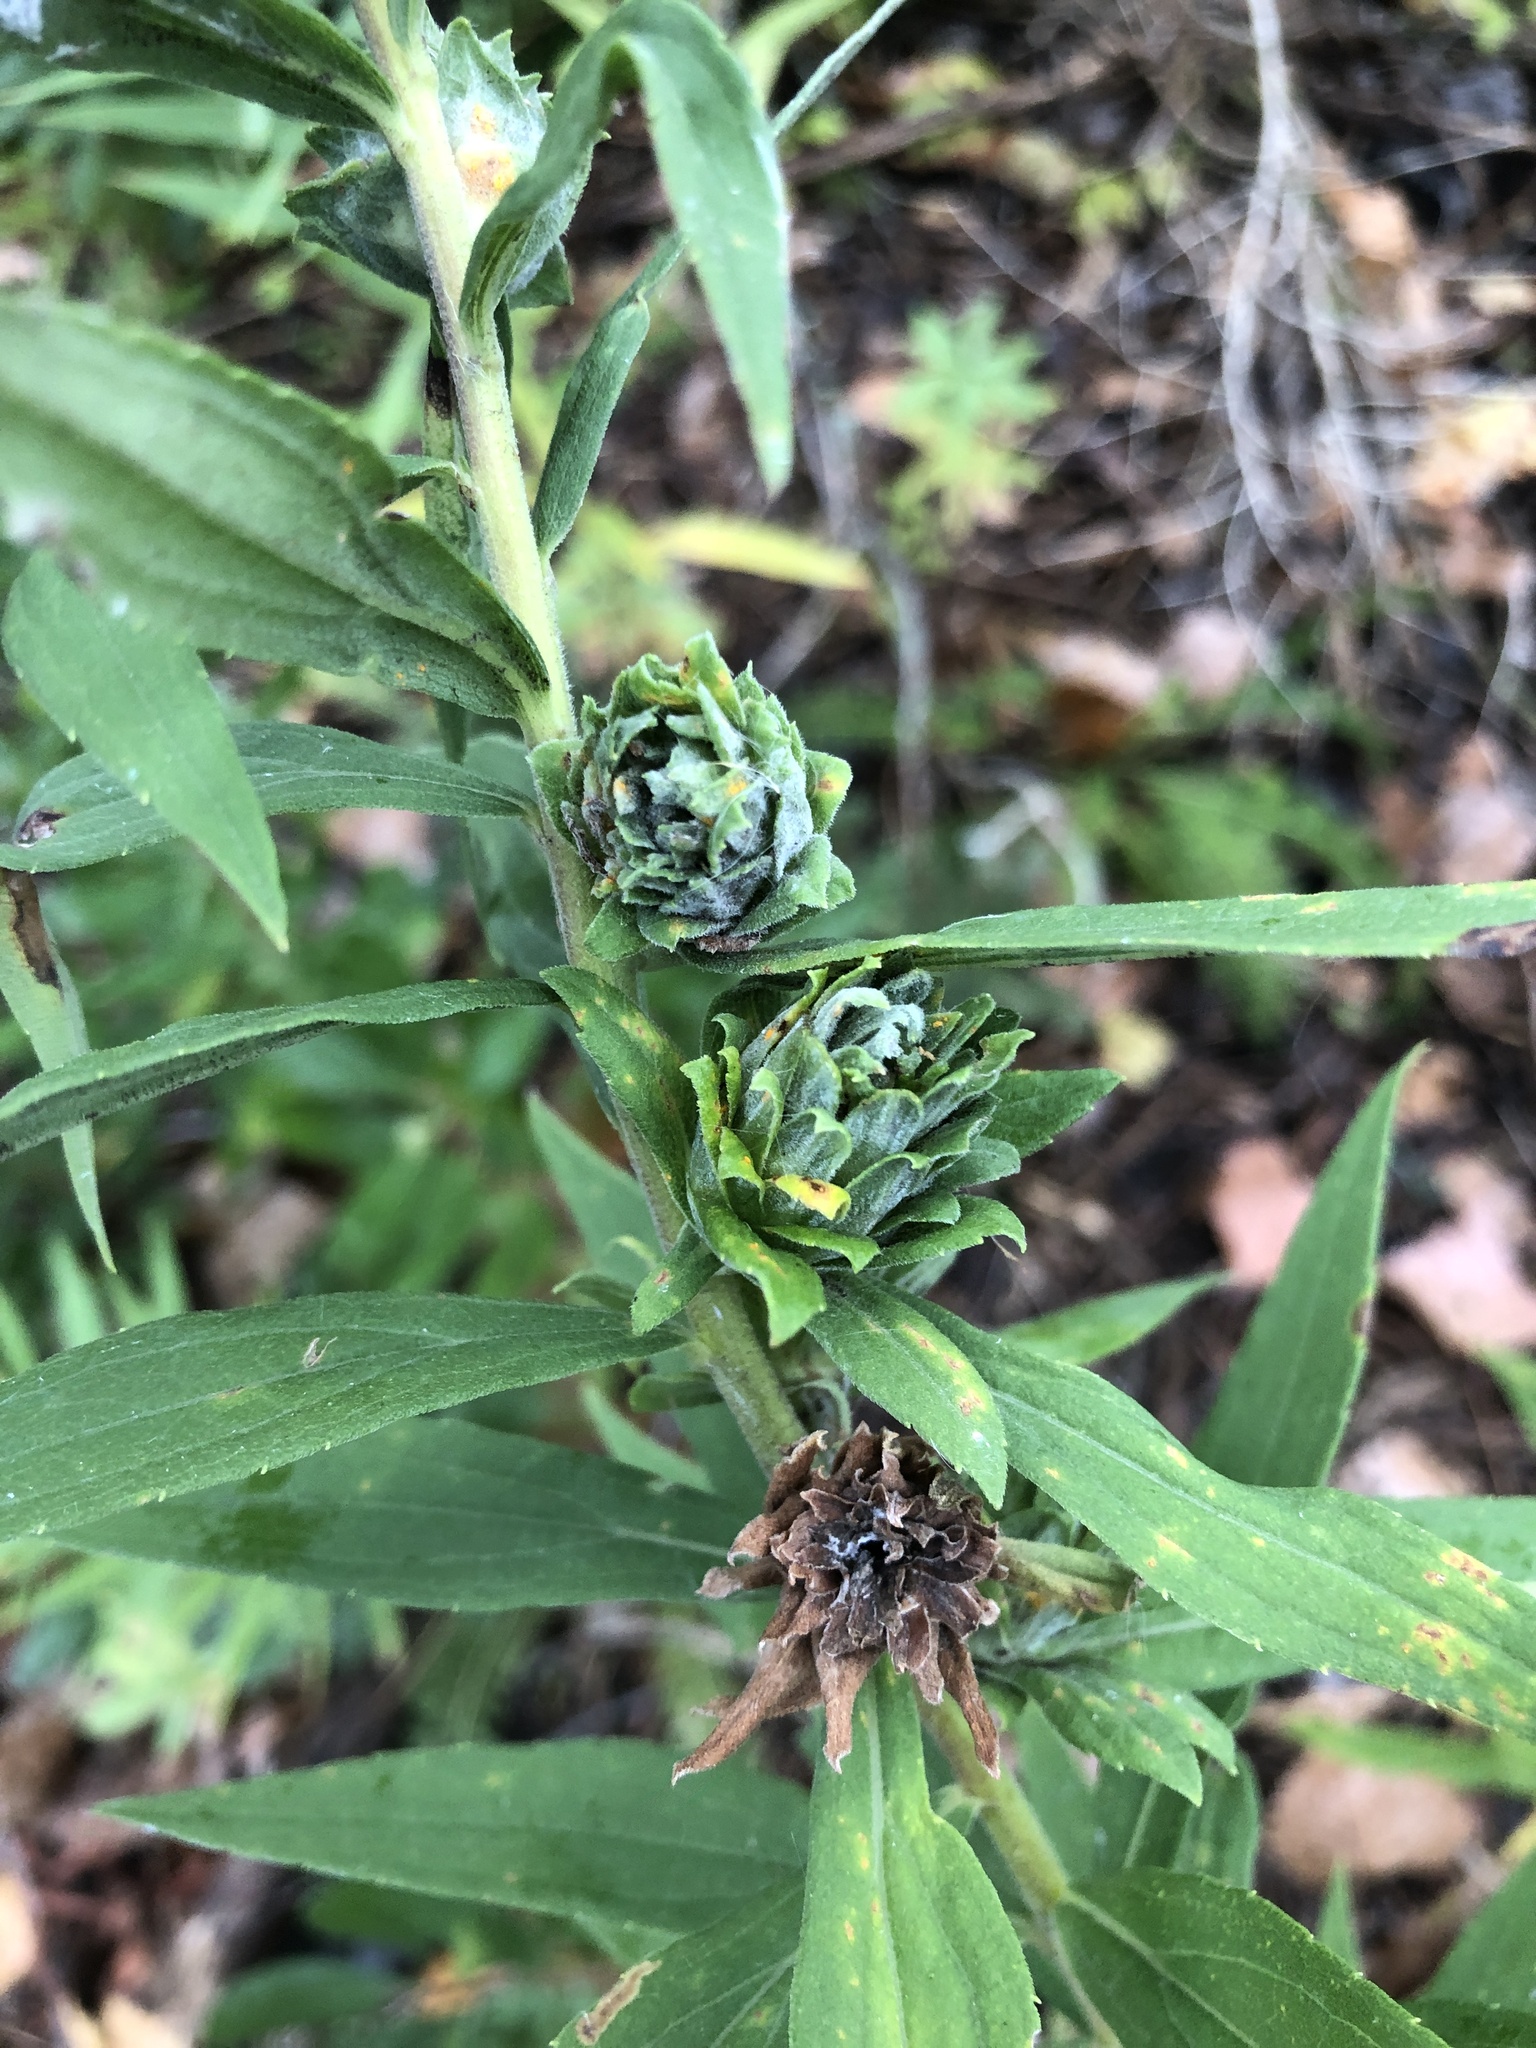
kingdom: Animalia
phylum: Arthropoda
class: Insecta
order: Diptera
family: Tephritidae
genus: Procecidochares
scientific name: Procecidochares atra
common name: Goldenrod brussels sprout gall fly
